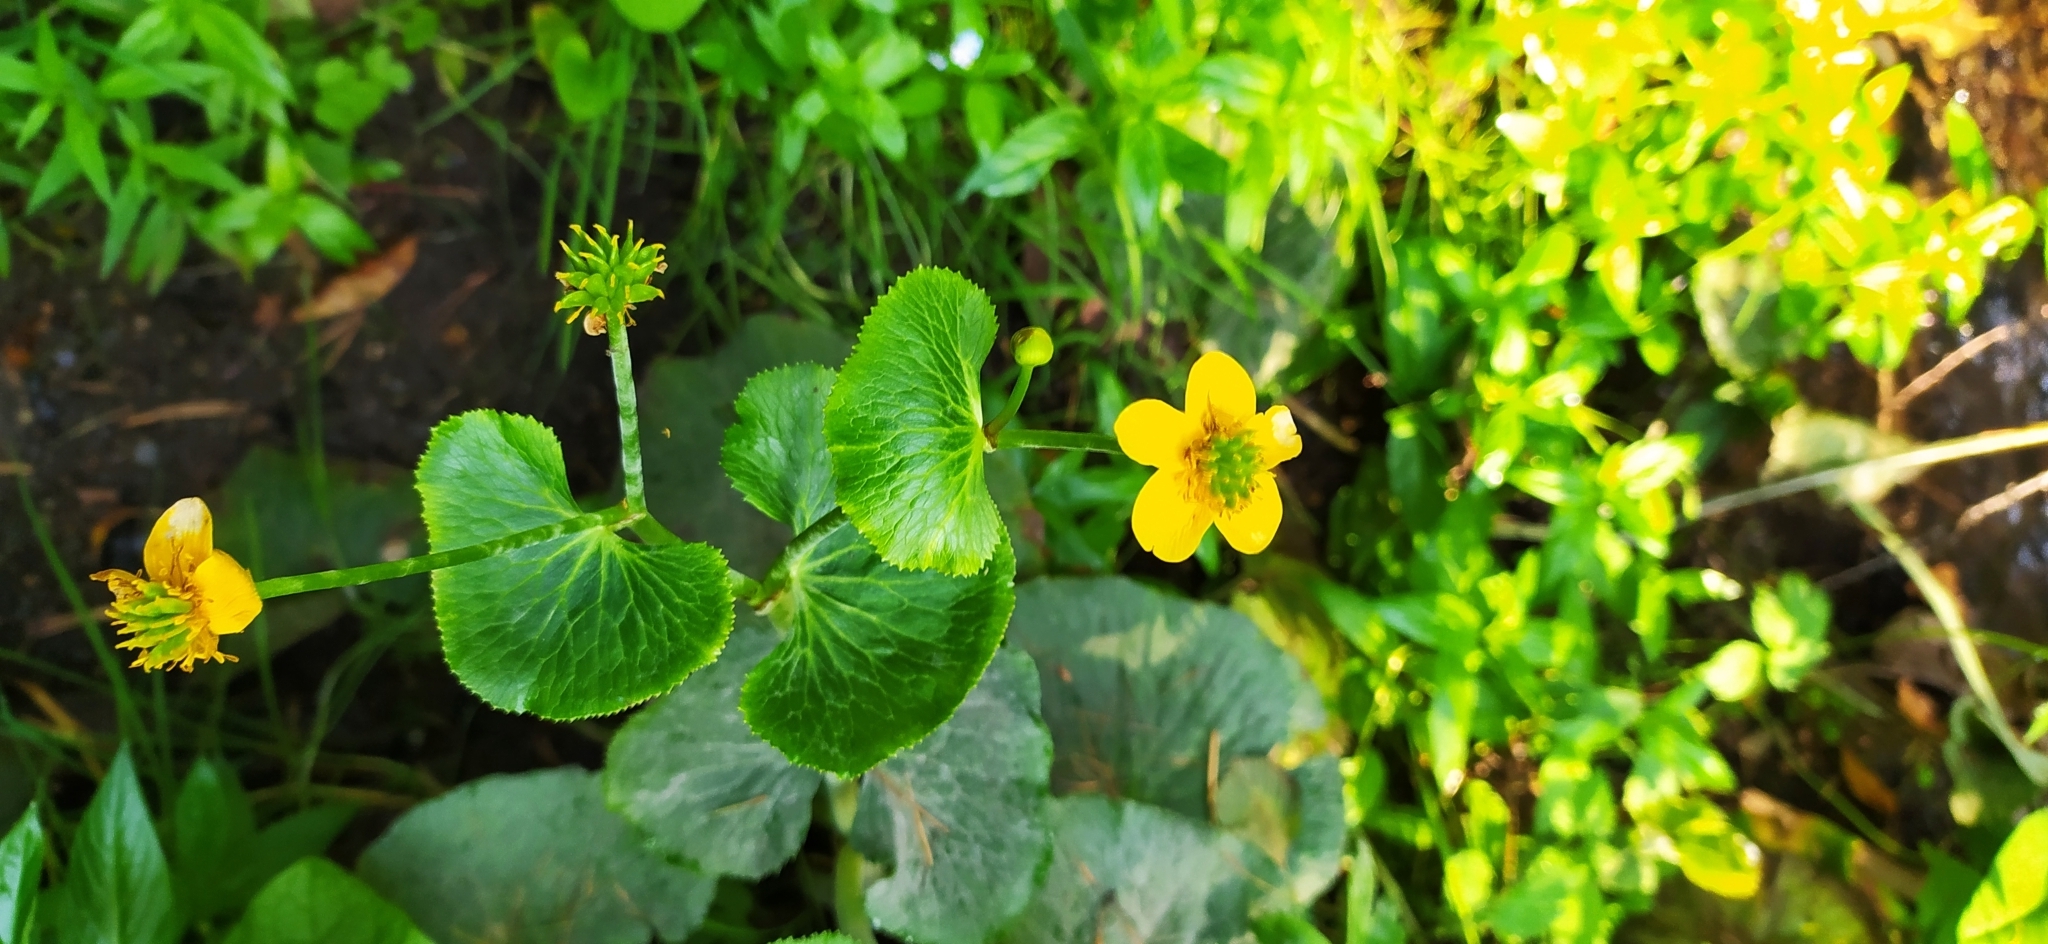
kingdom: Plantae
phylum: Tracheophyta
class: Magnoliopsida
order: Ranunculales
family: Ranunculaceae
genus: Caltha
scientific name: Caltha palustris
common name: Marsh marigold
